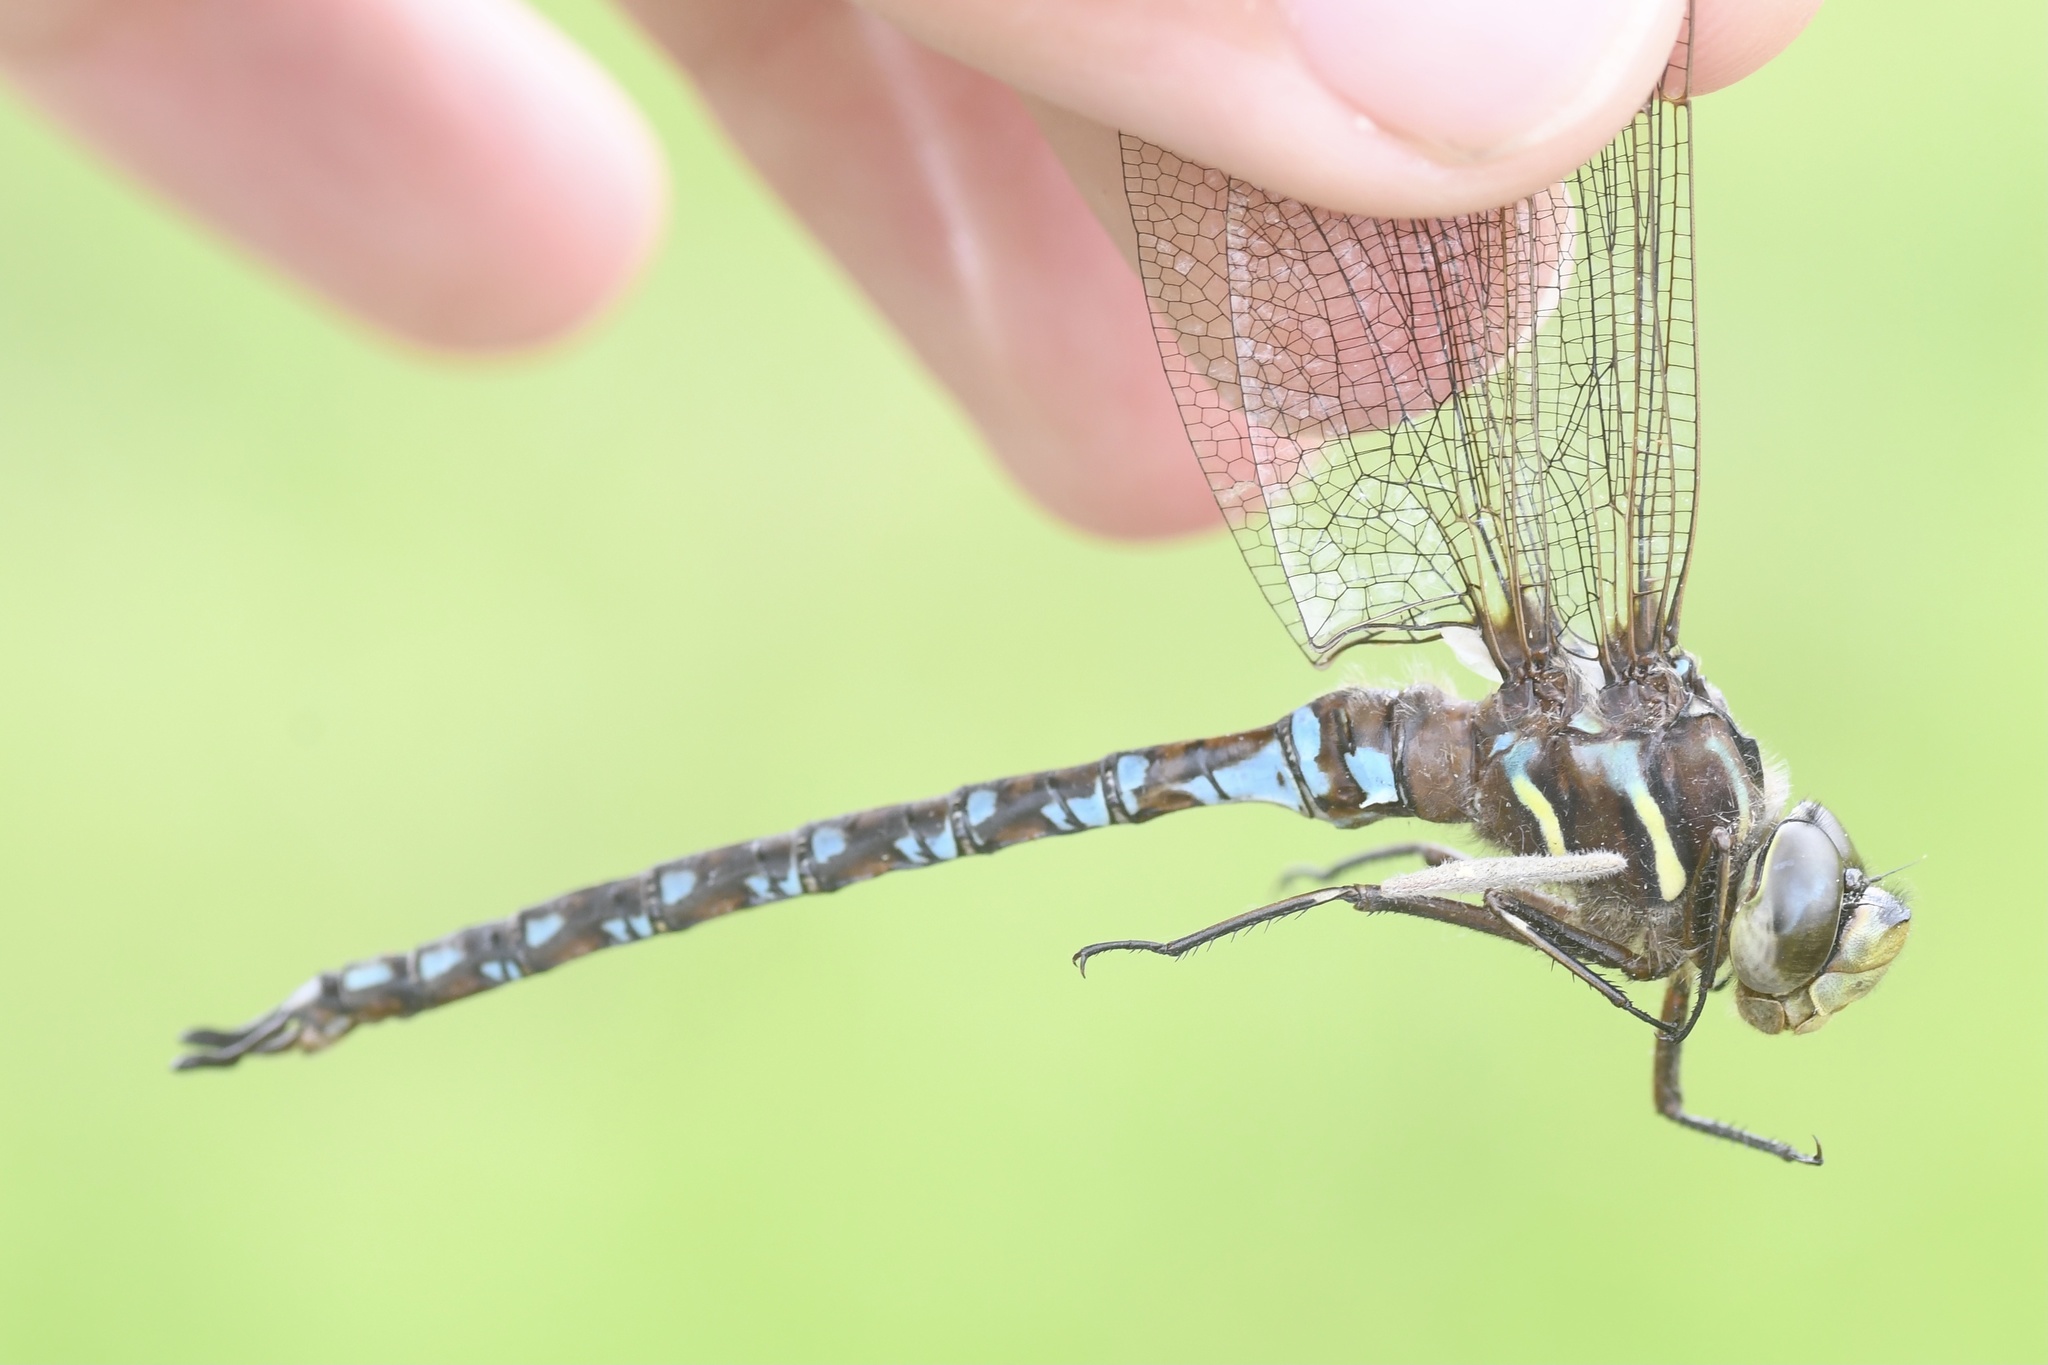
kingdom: Animalia
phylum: Arthropoda
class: Insecta
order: Odonata
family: Aeshnidae
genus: Basiaeschna
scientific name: Basiaeschna janata
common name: Springtime darner
